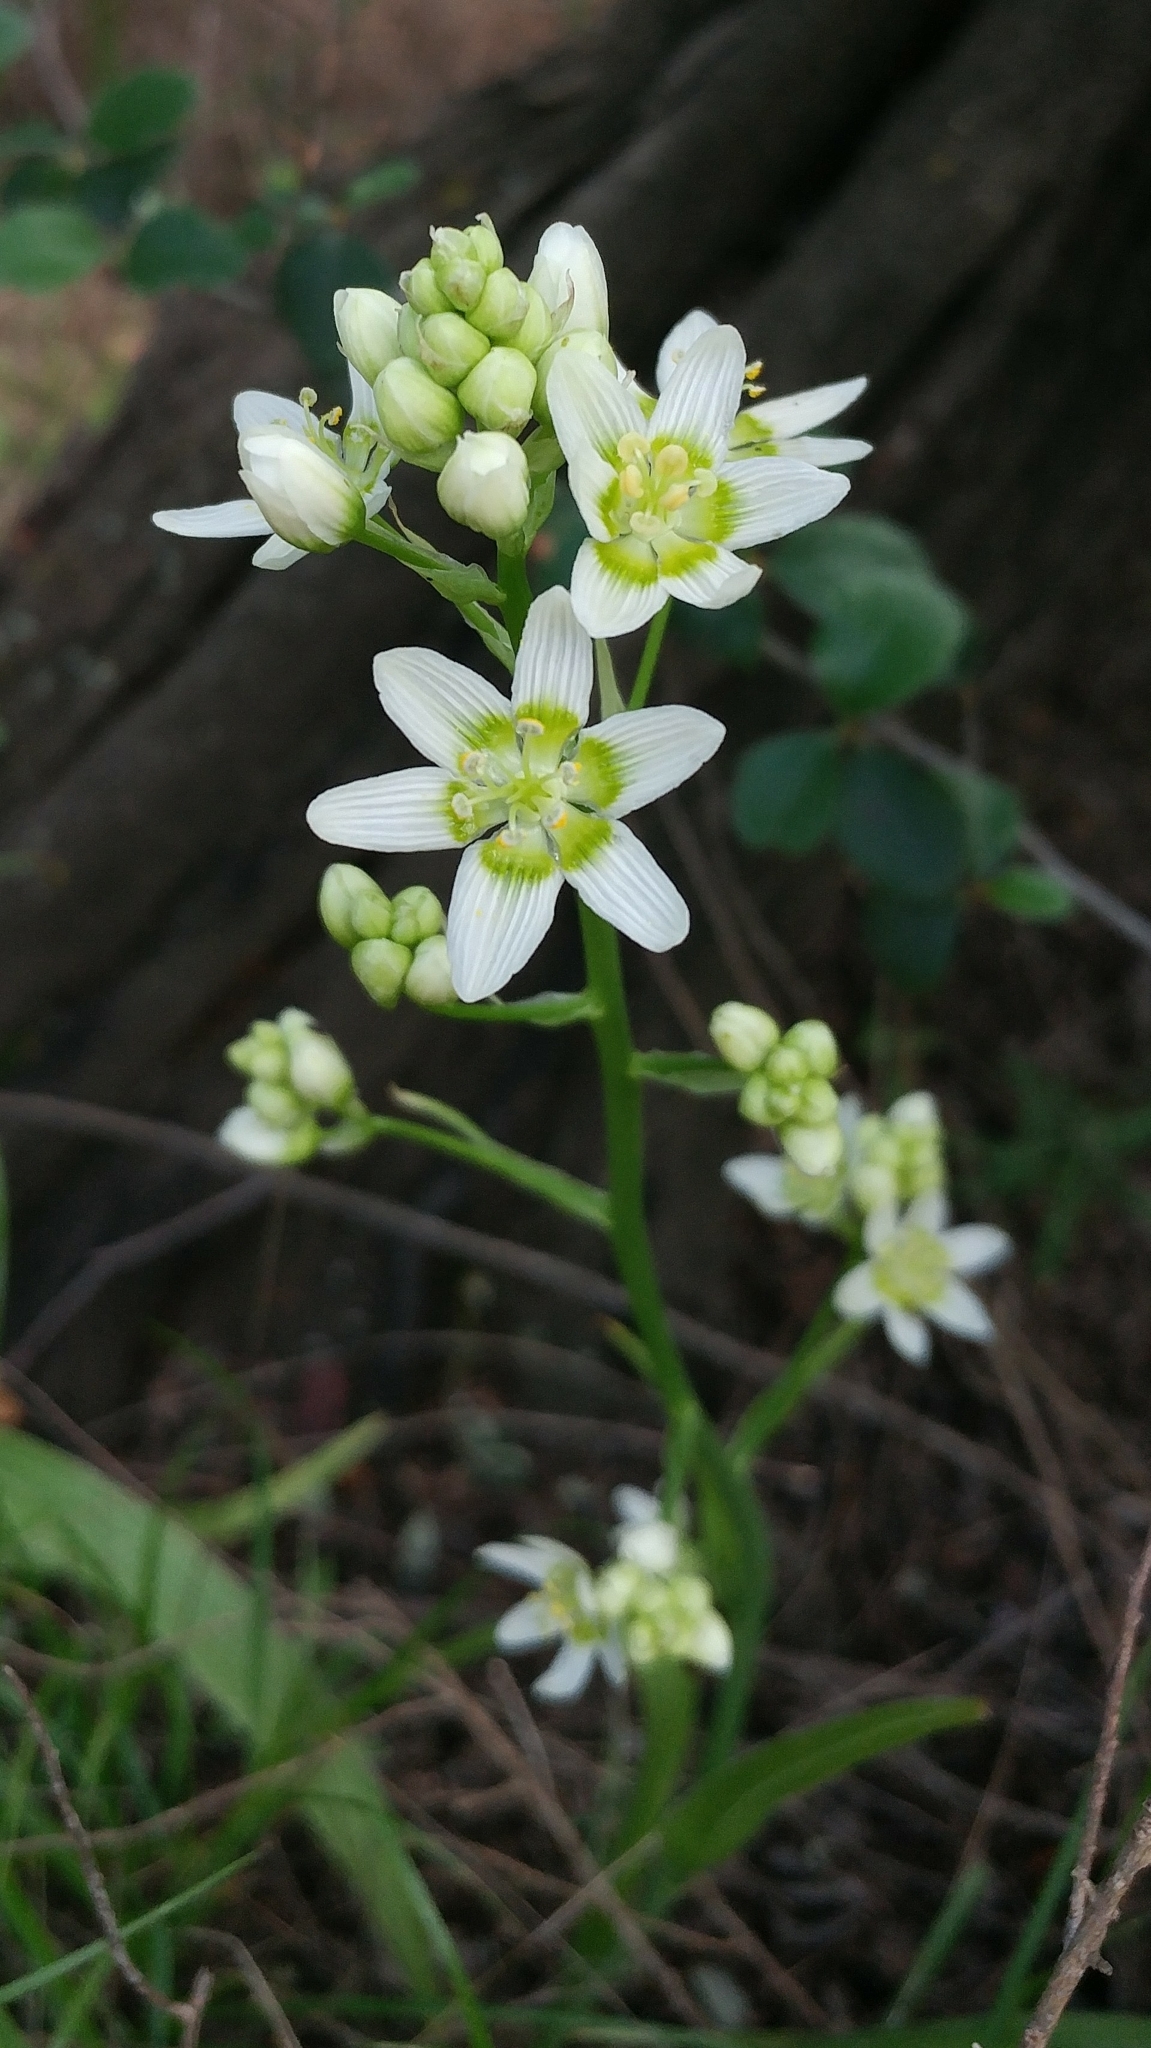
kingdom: Plantae
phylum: Tracheophyta
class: Liliopsida
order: Liliales
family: Melanthiaceae
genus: Toxicoscordion
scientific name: Toxicoscordion fremontii
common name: Fremont's death camas
